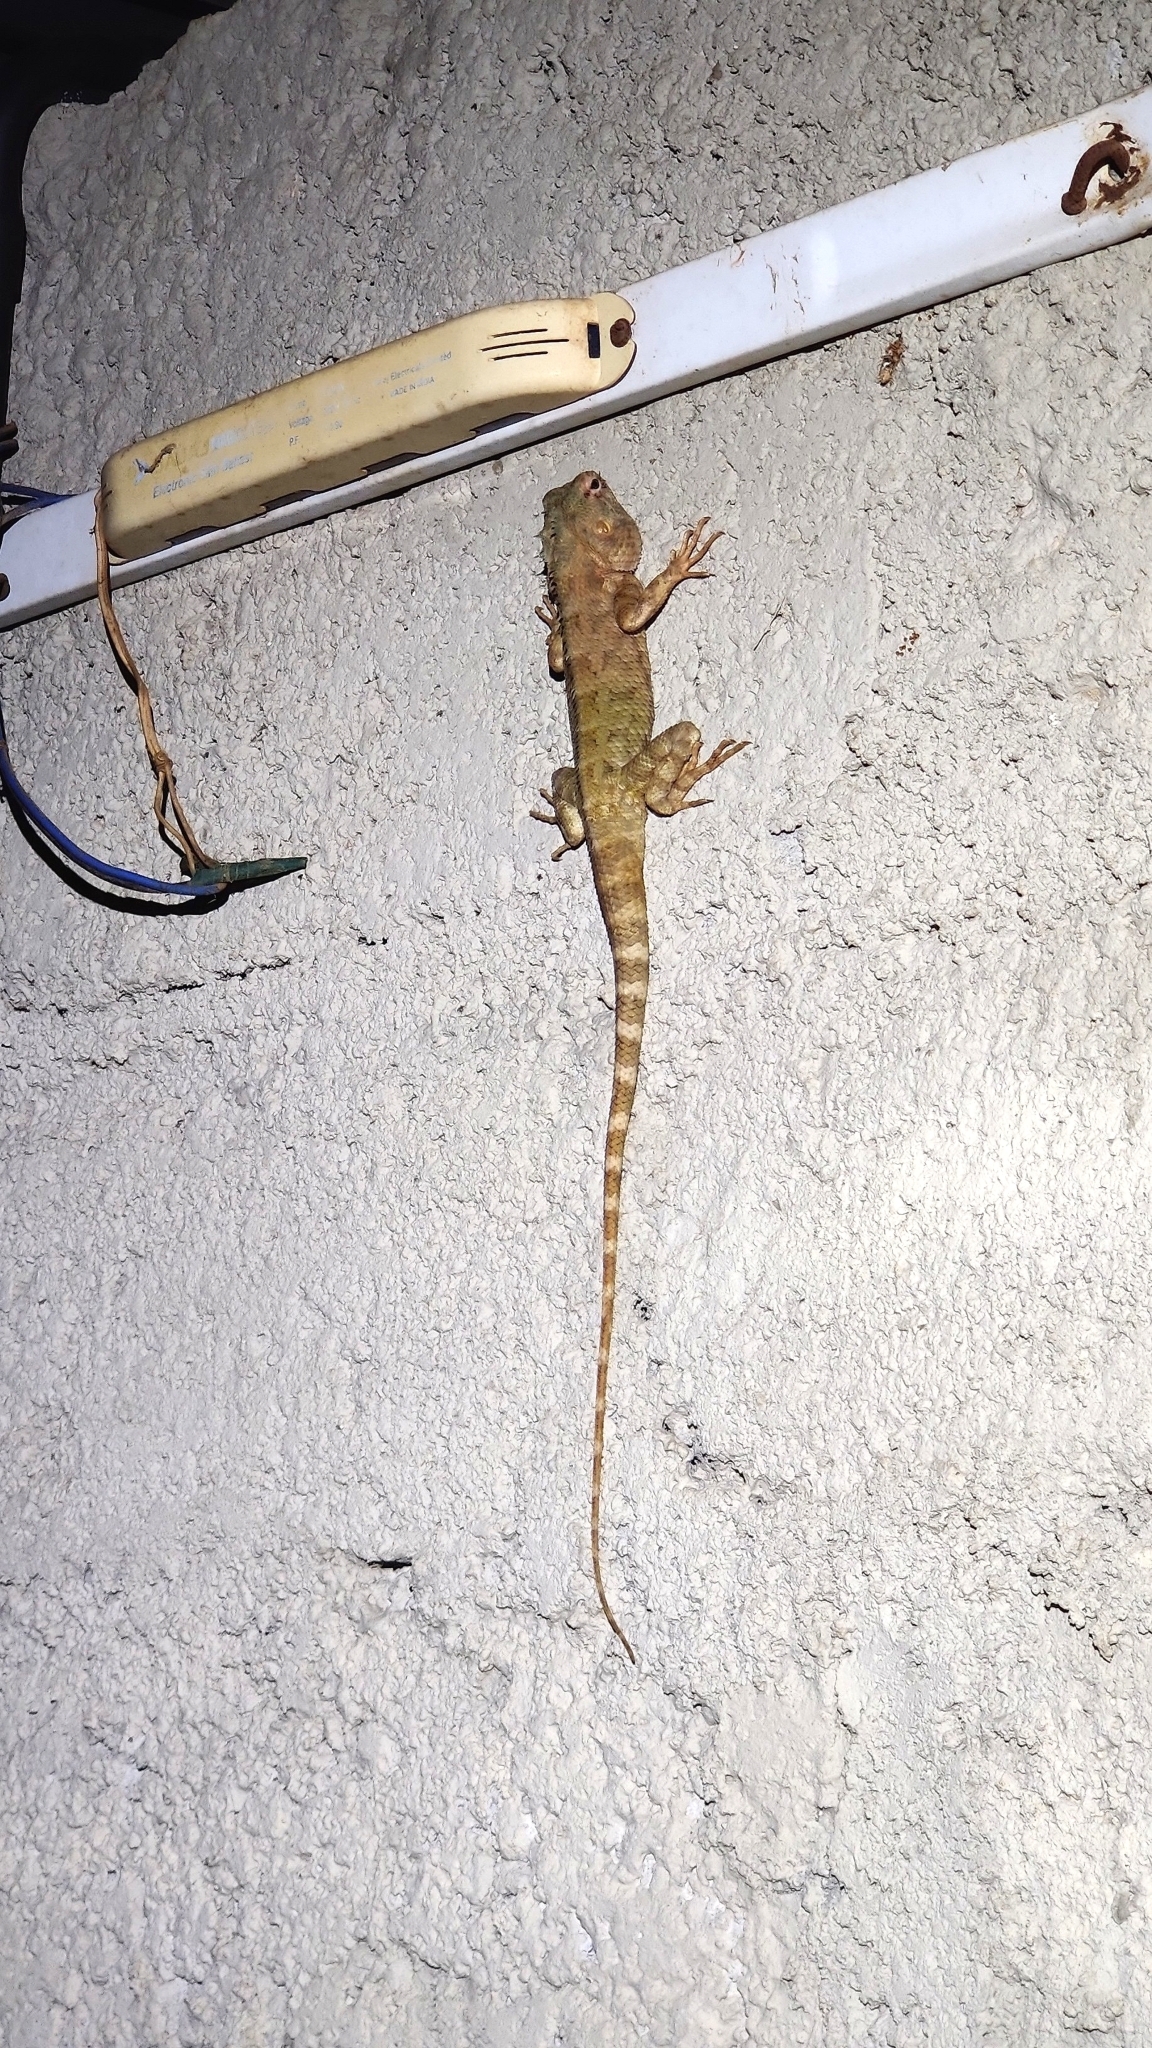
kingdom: Animalia
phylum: Chordata
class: Squamata
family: Agamidae
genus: Calotes
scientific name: Calotes versicolor
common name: Oriental garden lizard
